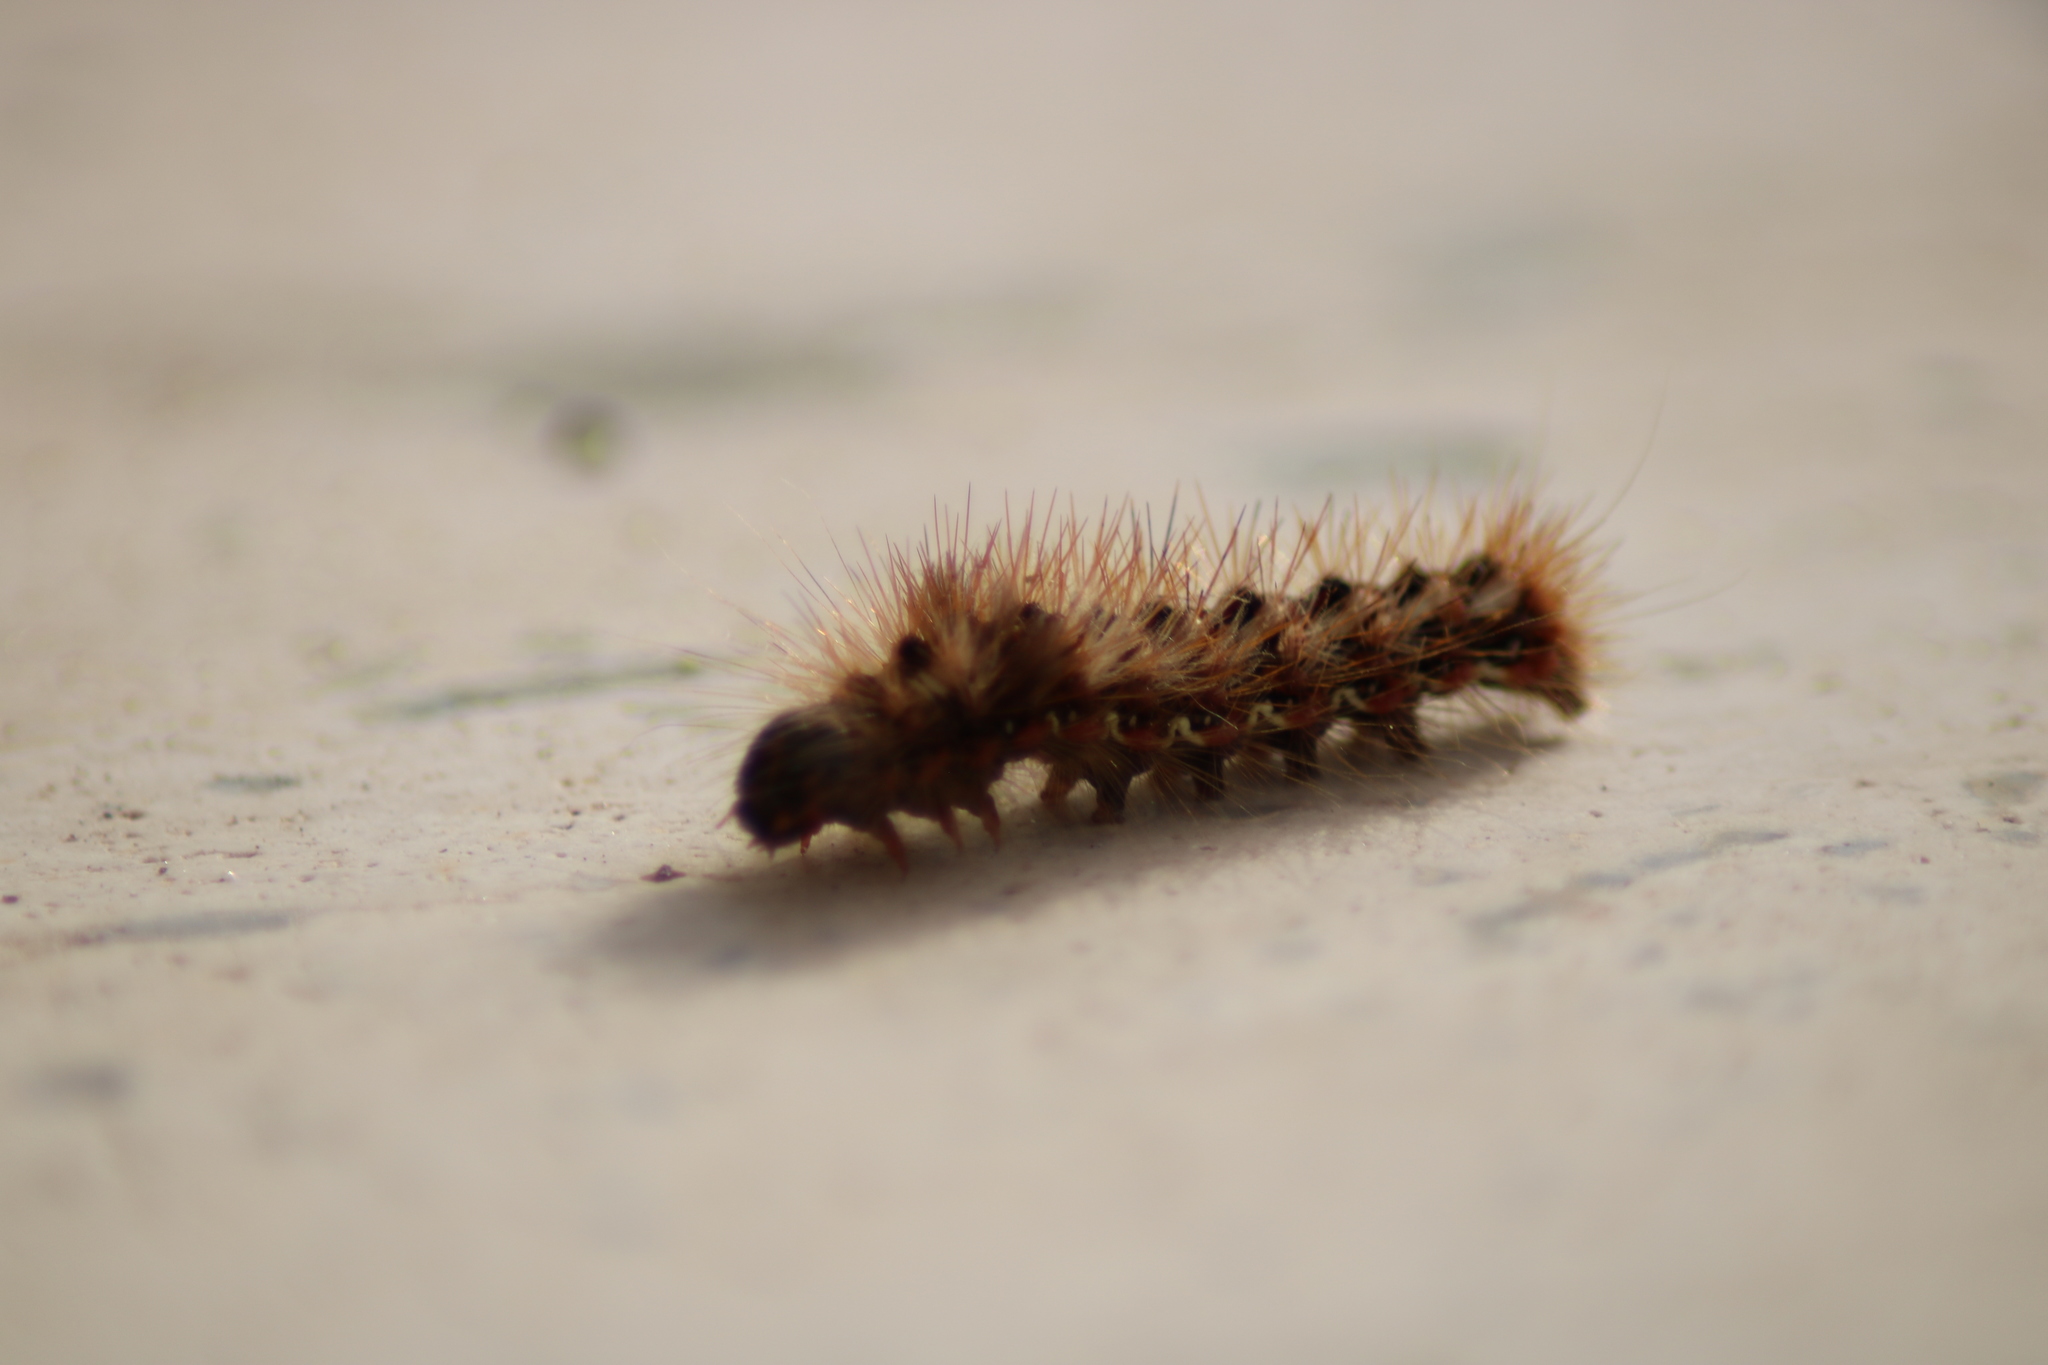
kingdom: Animalia
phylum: Arthropoda
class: Insecta
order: Lepidoptera
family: Noctuidae
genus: Acronicta
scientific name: Acronicta rumicis
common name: Knot grass
